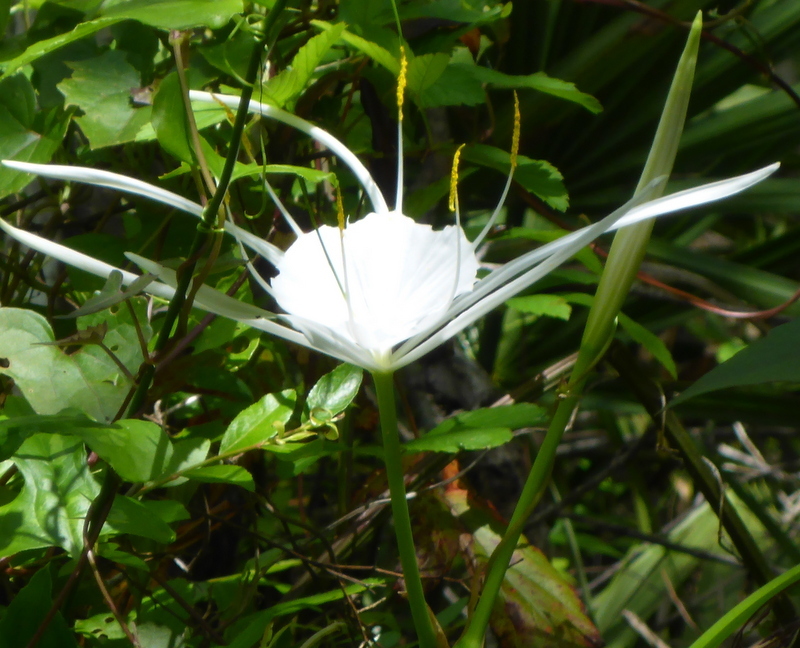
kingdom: Plantae
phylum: Tracheophyta
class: Liliopsida
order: Asparagales
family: Amaryllidaceae
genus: Hymenocallis
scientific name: Hymenocallis franklinensis
